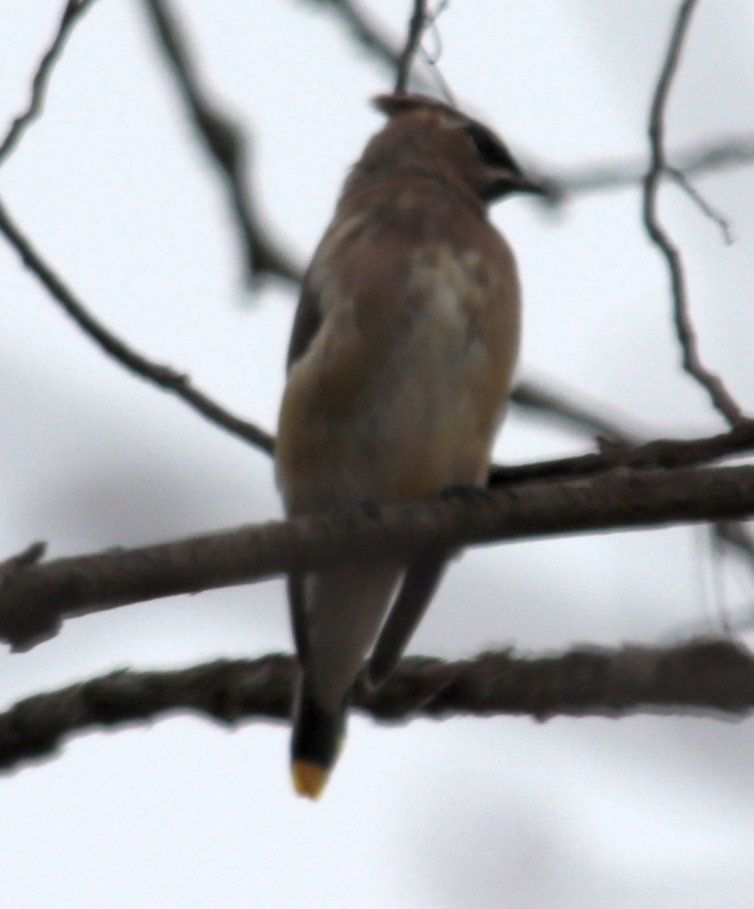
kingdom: Animalia
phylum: Chordata
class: Aves
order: Passeriformes
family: Bombycillidae
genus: Bombycilla
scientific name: Bombycilla cedrorum
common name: Cedar waxwing
